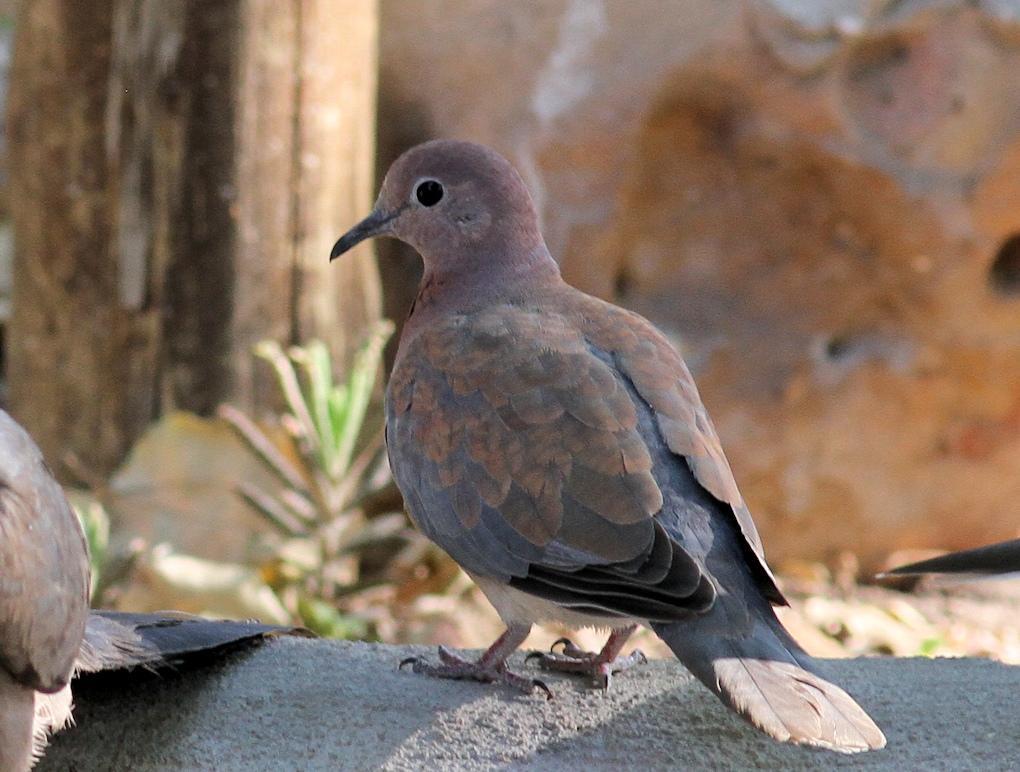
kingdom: Animalia
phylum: Chordata
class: Aves
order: Columbiformes
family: Columbidae
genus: Spilopelia
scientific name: Spilopelia senegalensis
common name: Laughing dove
